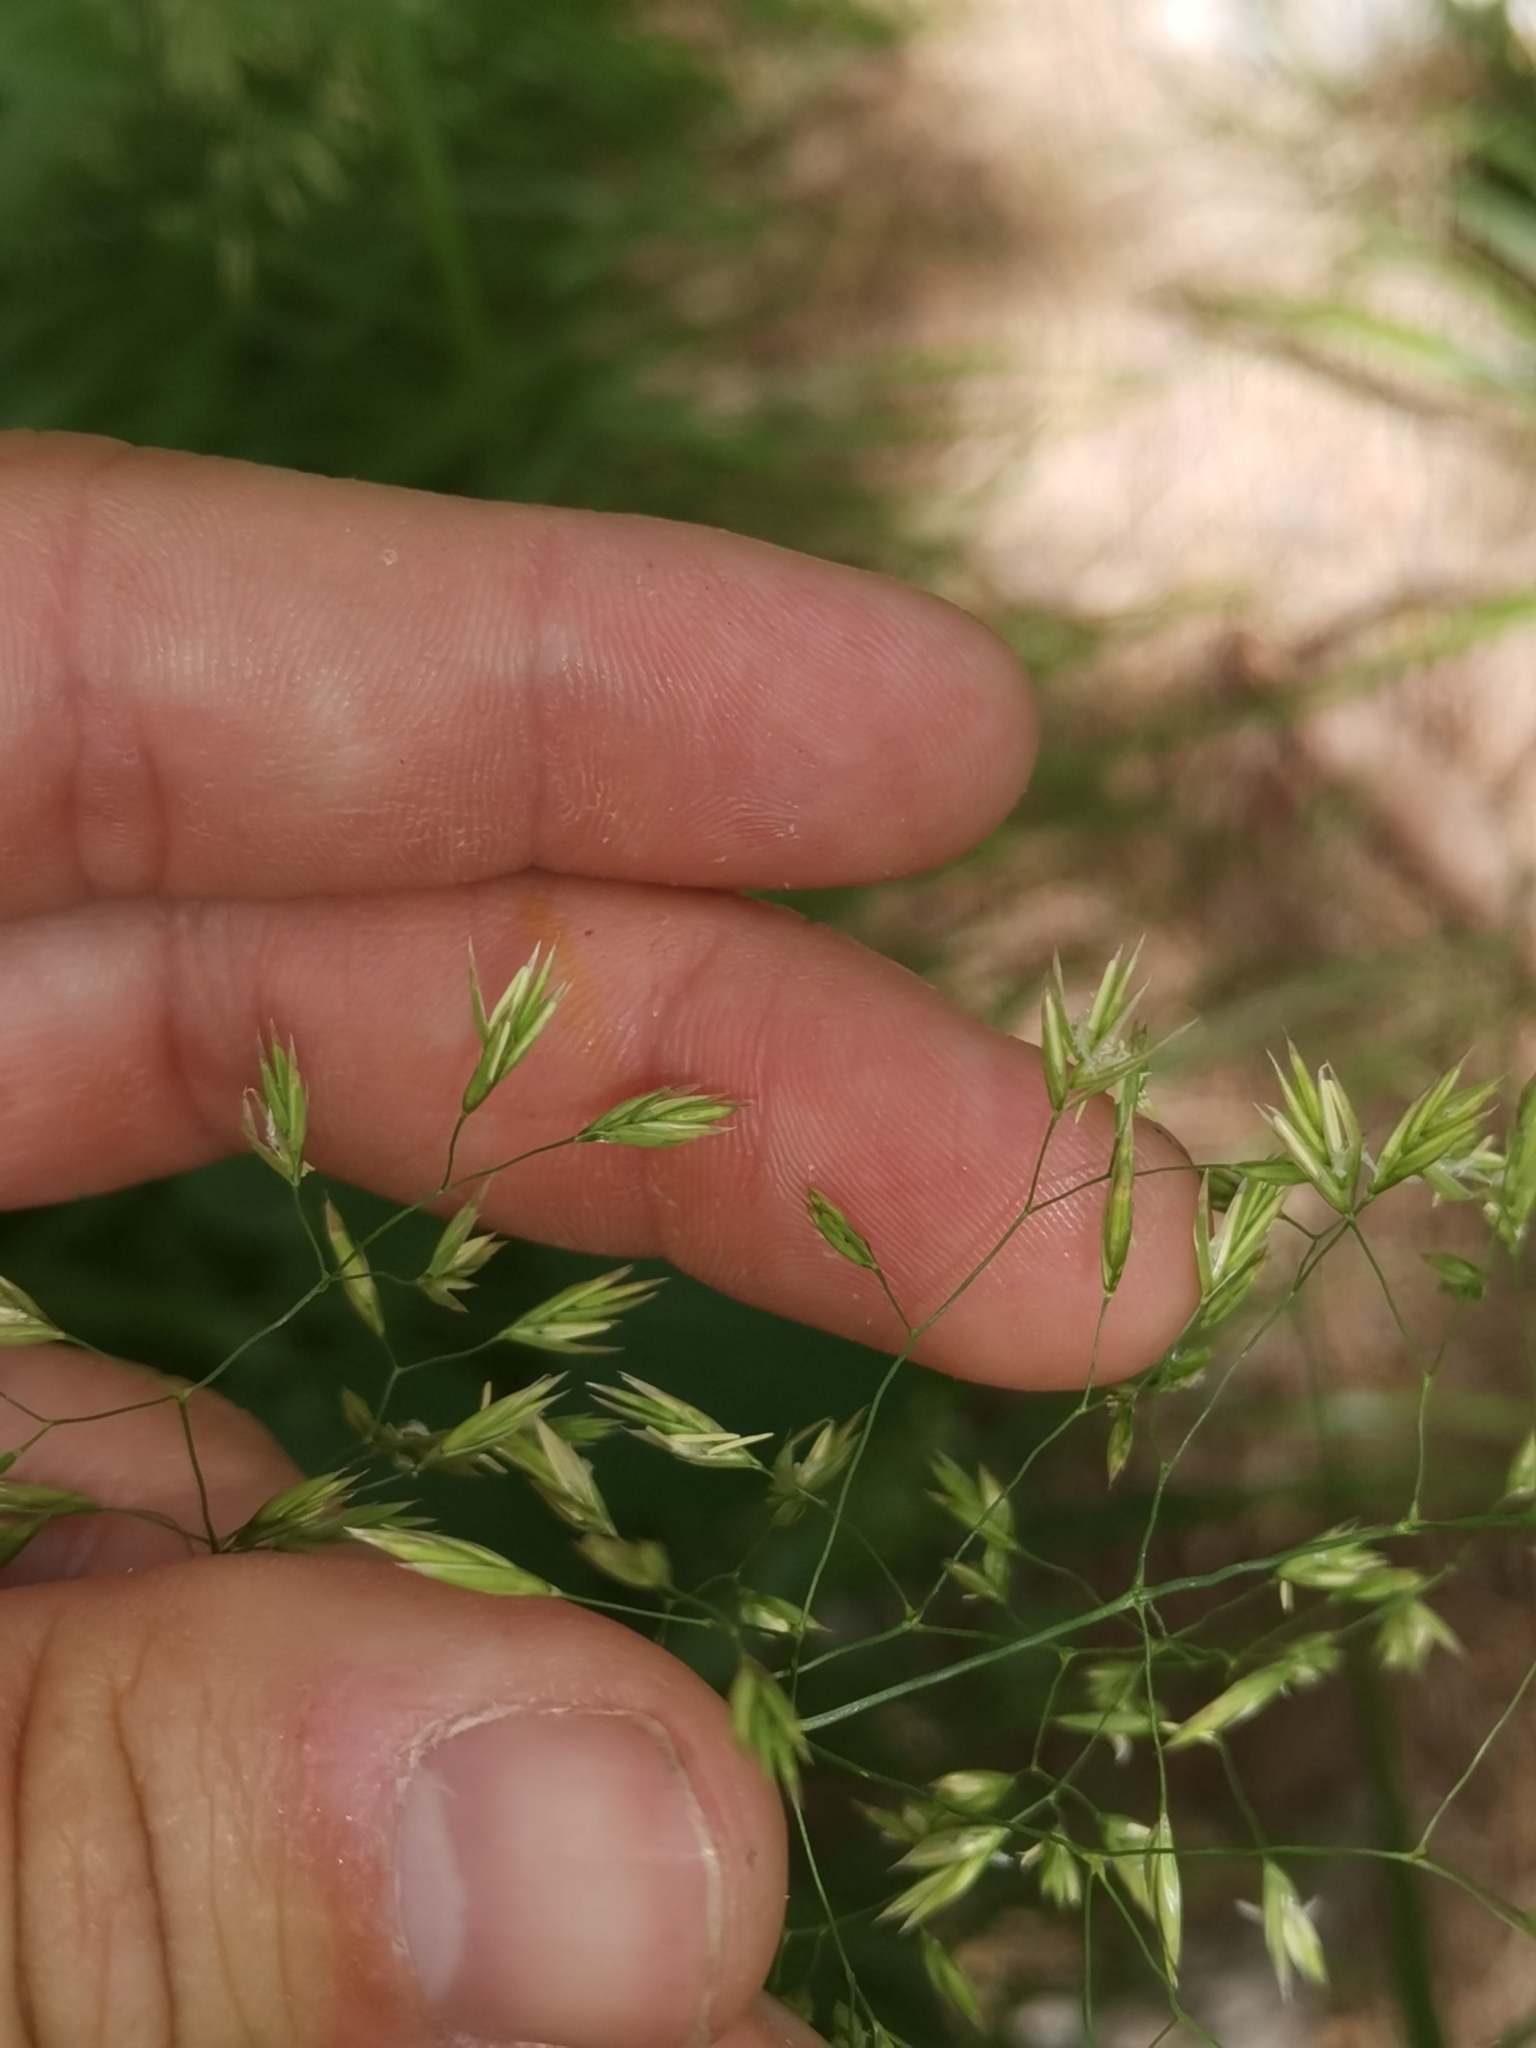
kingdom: Plantae
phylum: Tracheophyta
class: Liliopsida
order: Poales
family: Poaceae
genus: Festuca
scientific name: Festuca altissima
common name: Wood fescue
